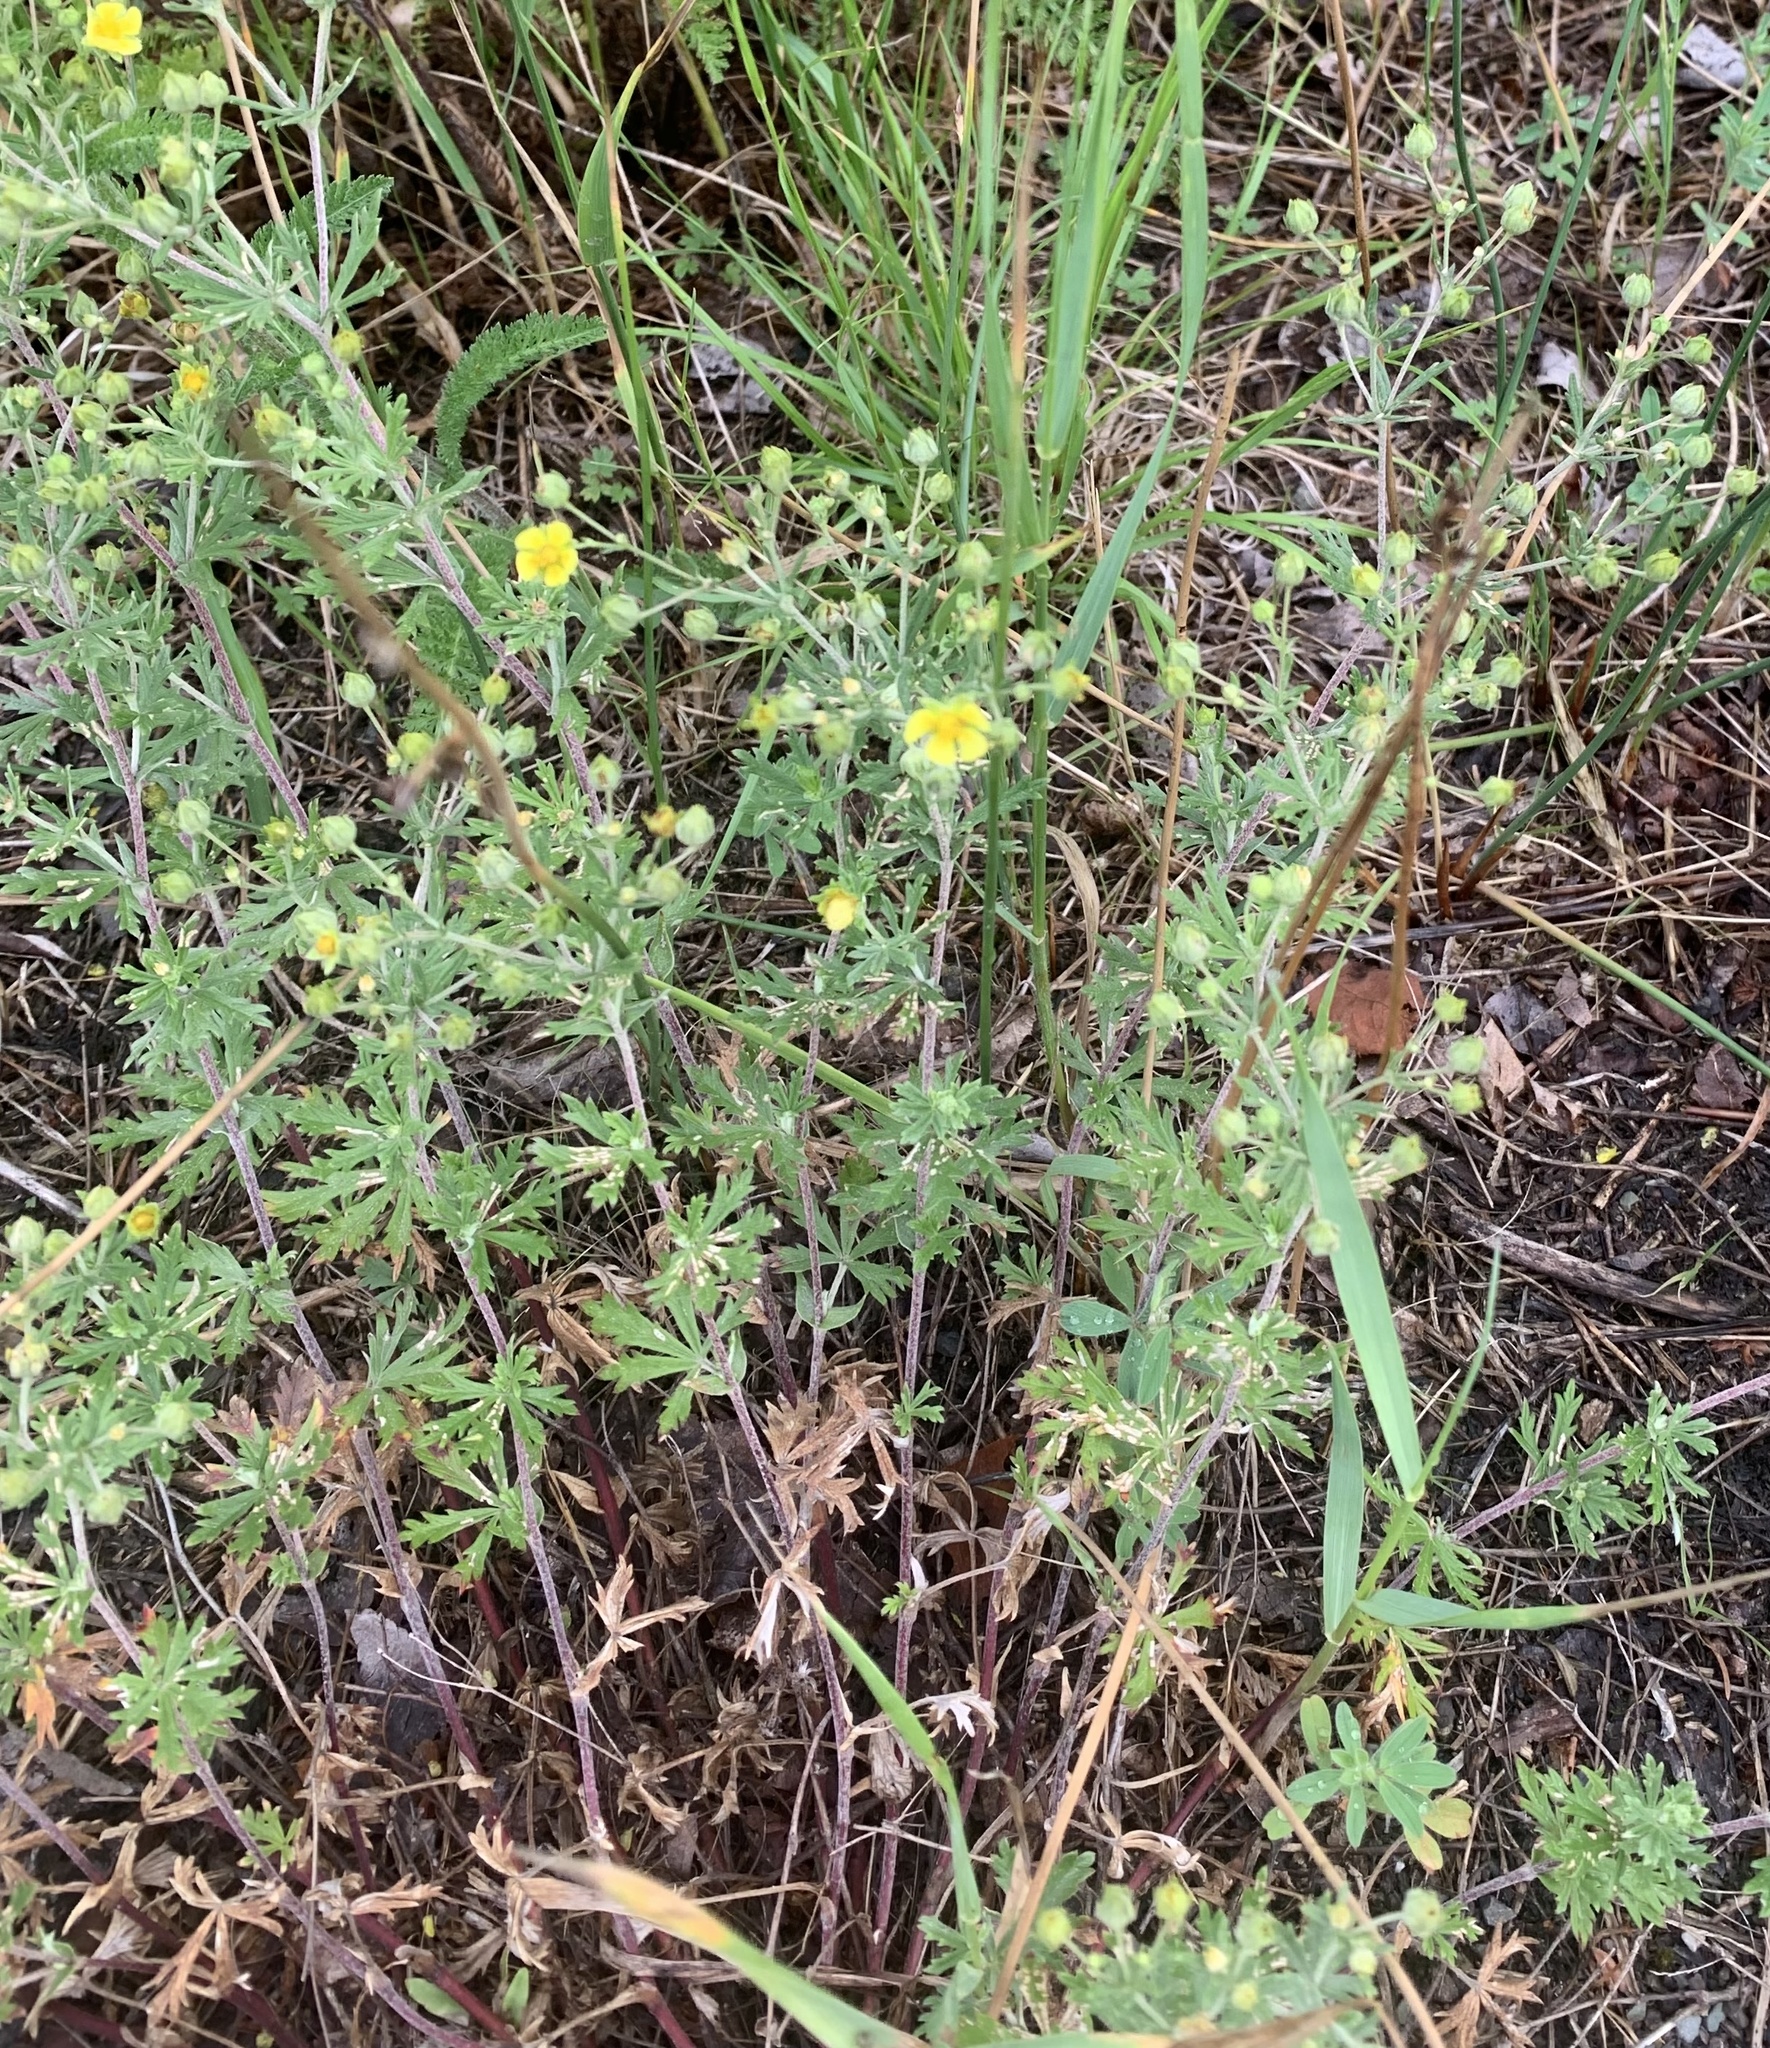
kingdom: Plantae
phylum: Tracheophyta
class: Magnoliopsida
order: Rosales
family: Rosaceae
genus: Potentilla
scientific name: Potentilla argentea
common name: Hoary cinquefoil
